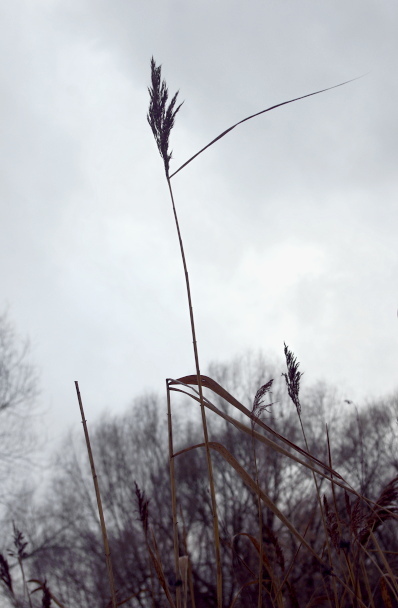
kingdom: Plantae
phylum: Tracheophyta
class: Liliopsida
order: Poales
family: Poaceae
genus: Phragmites
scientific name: Phragmites australis
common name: Common reed
